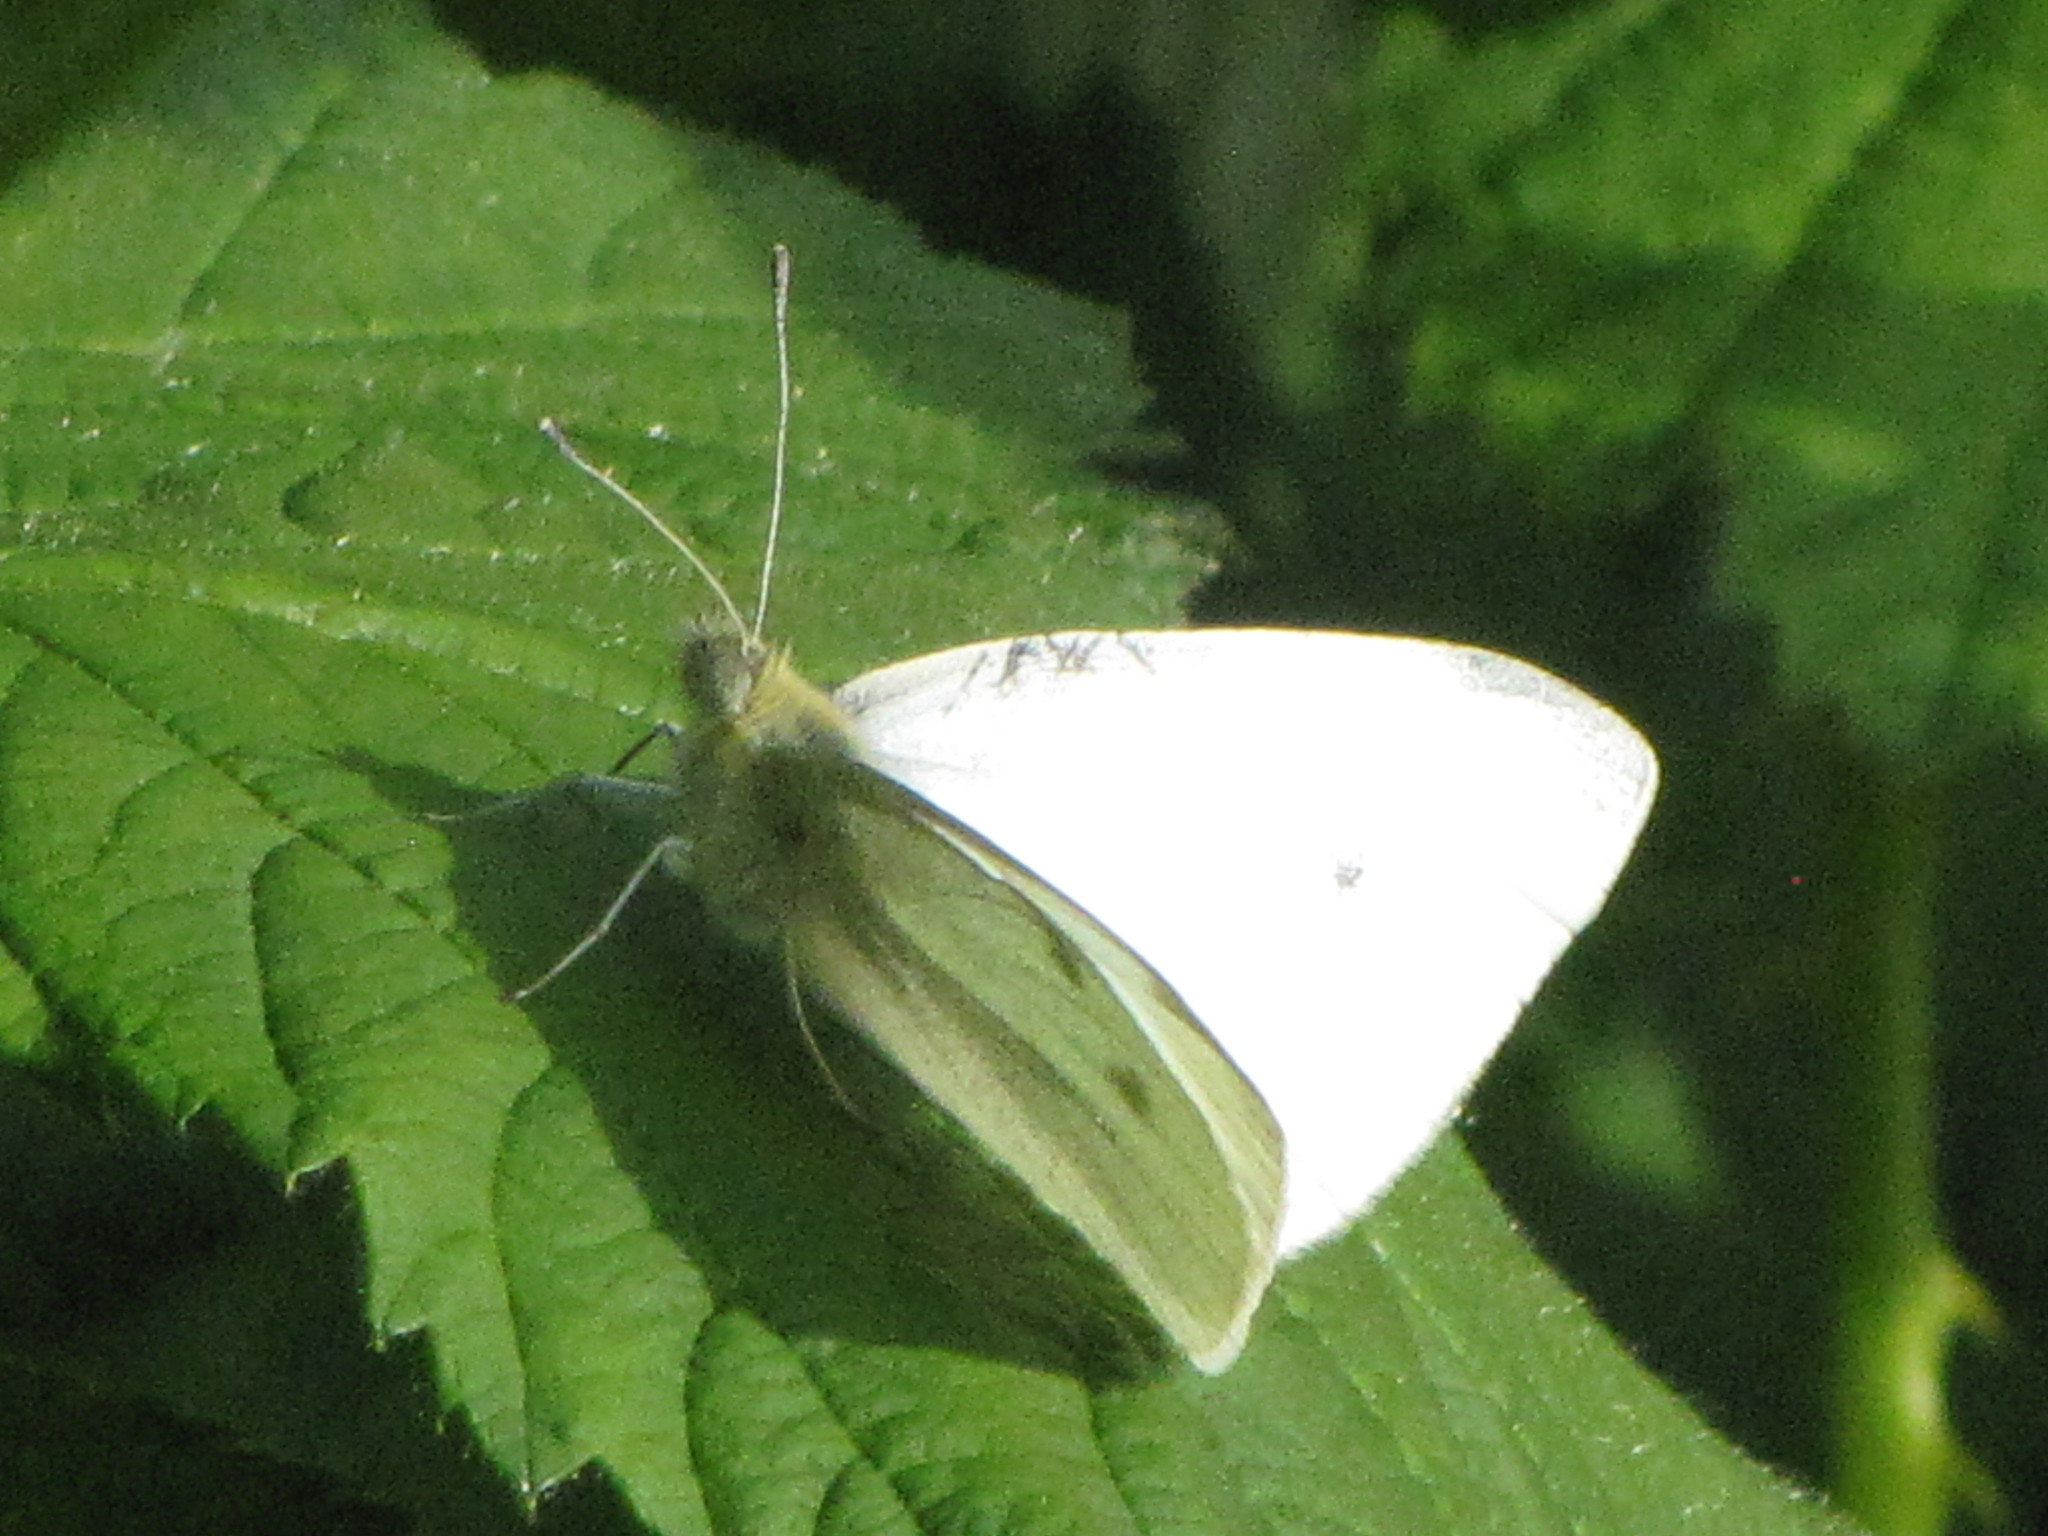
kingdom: Animalia
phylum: Arthropoda
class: Insecta
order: Lepidoptera
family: Pieridae
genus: Pieris
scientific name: Pieris rapae
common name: Small white
